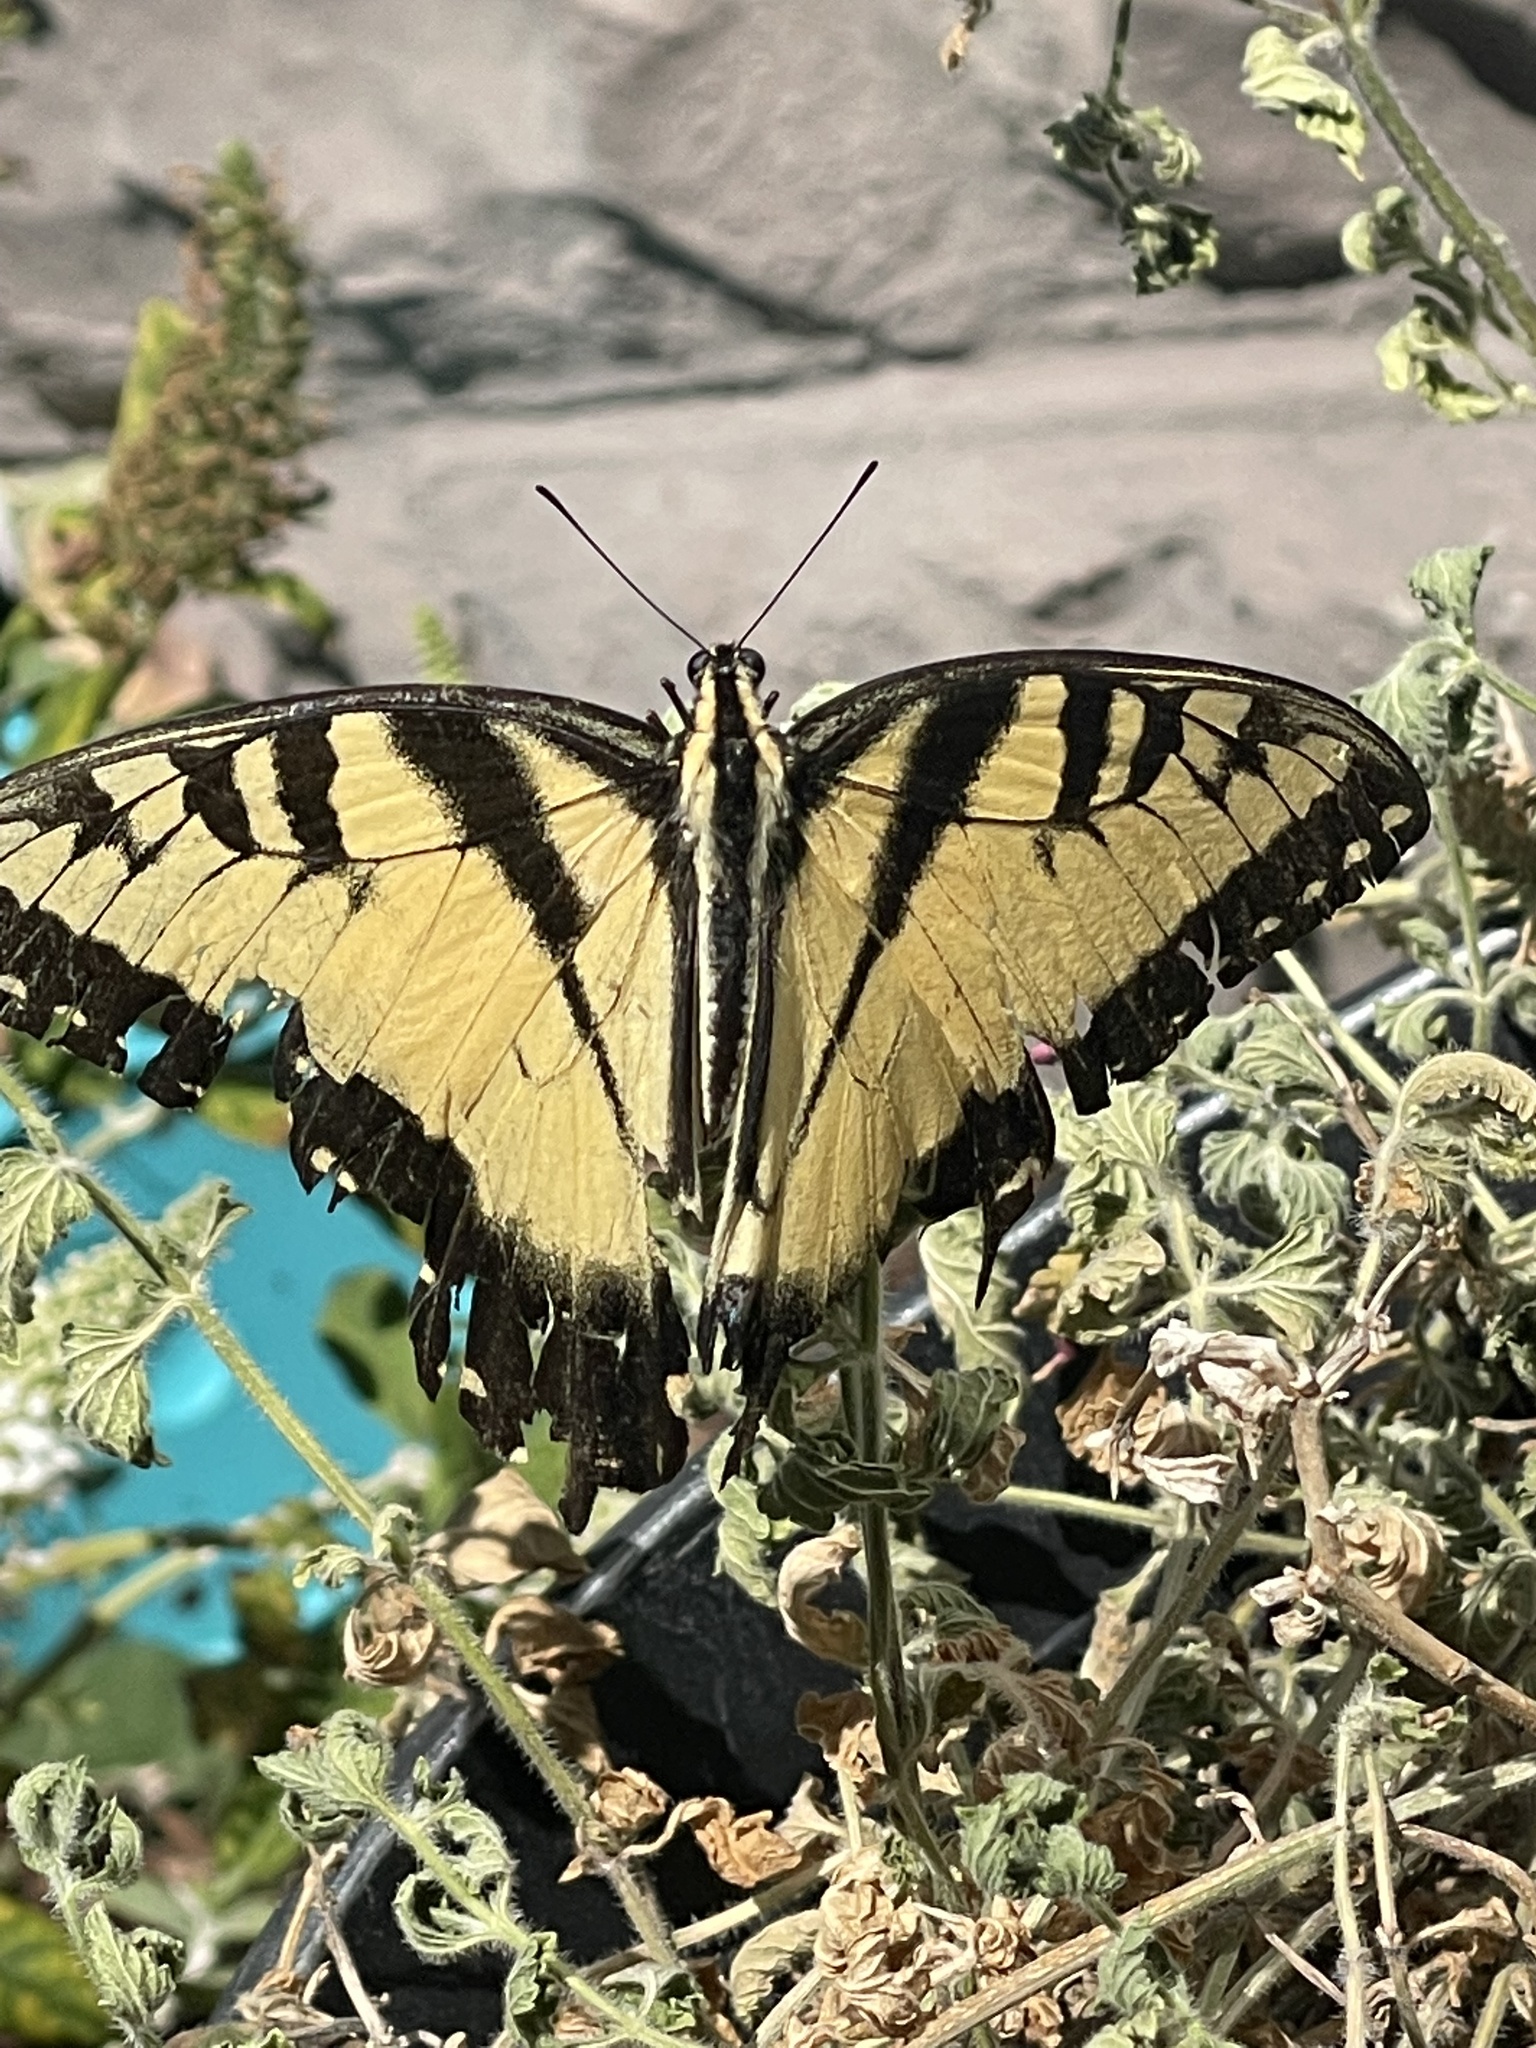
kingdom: Animalia
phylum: Arthropoda
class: Insecta
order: Lepidoptera
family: Papilionidae
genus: Papilio
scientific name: Papilio glaucus
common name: Tiger swallowtail
